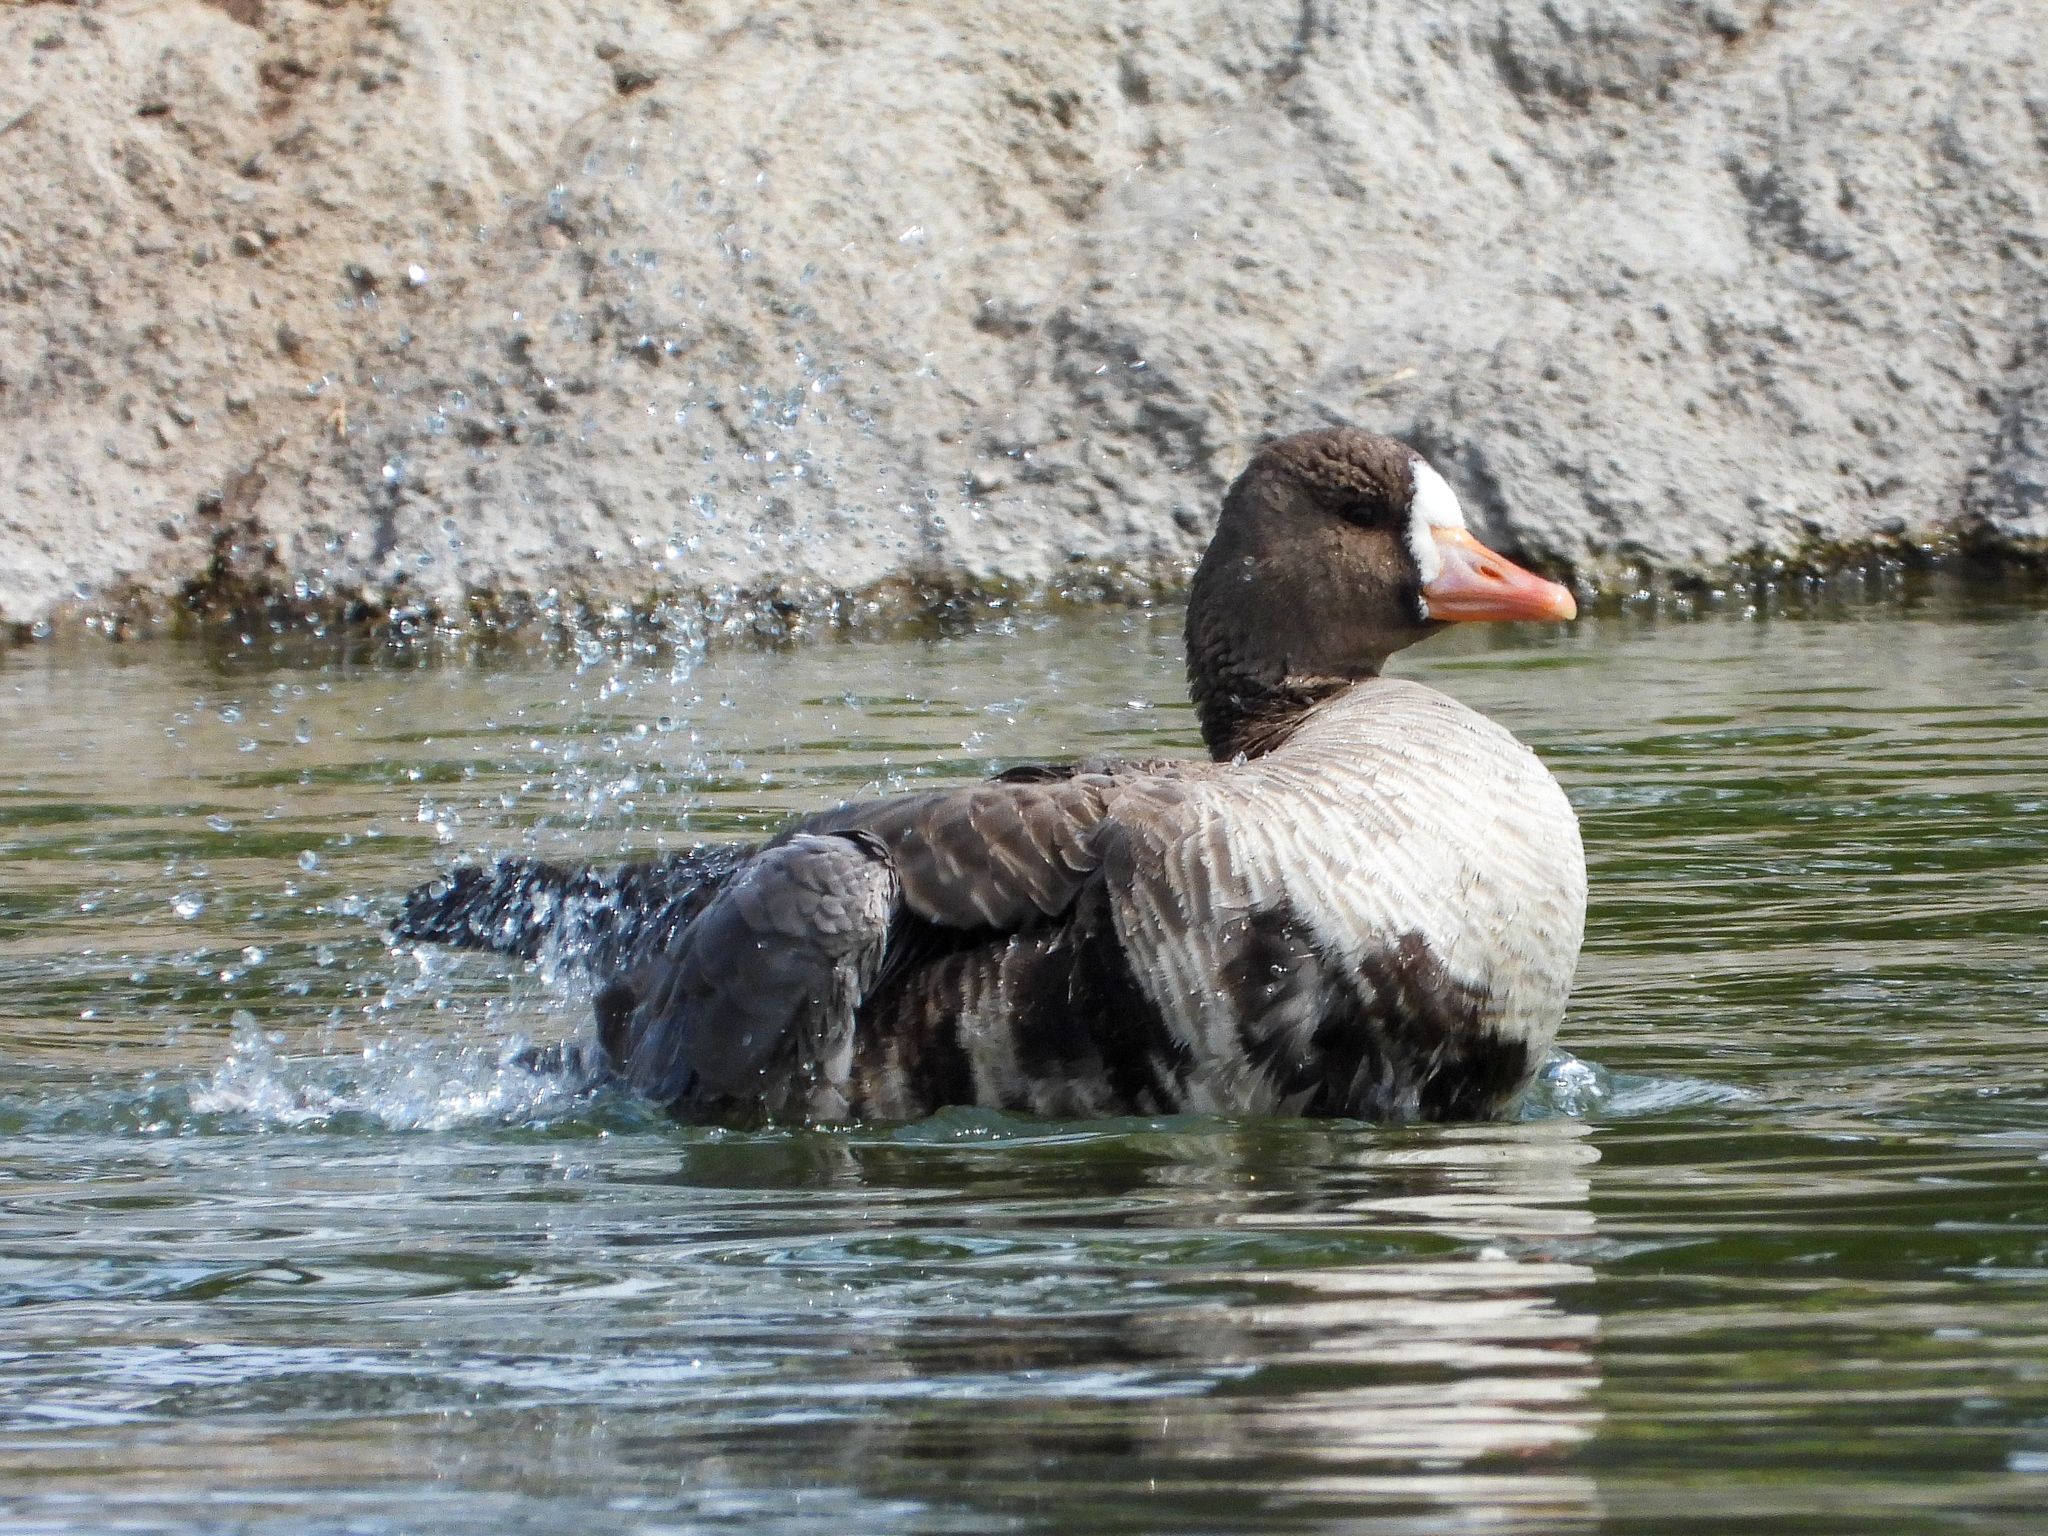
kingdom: Animalia
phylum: Chordata
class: Aves
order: Anseriformes
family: Anatidae
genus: Anser
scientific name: Anser albifrons
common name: Greater white-fronted goose
